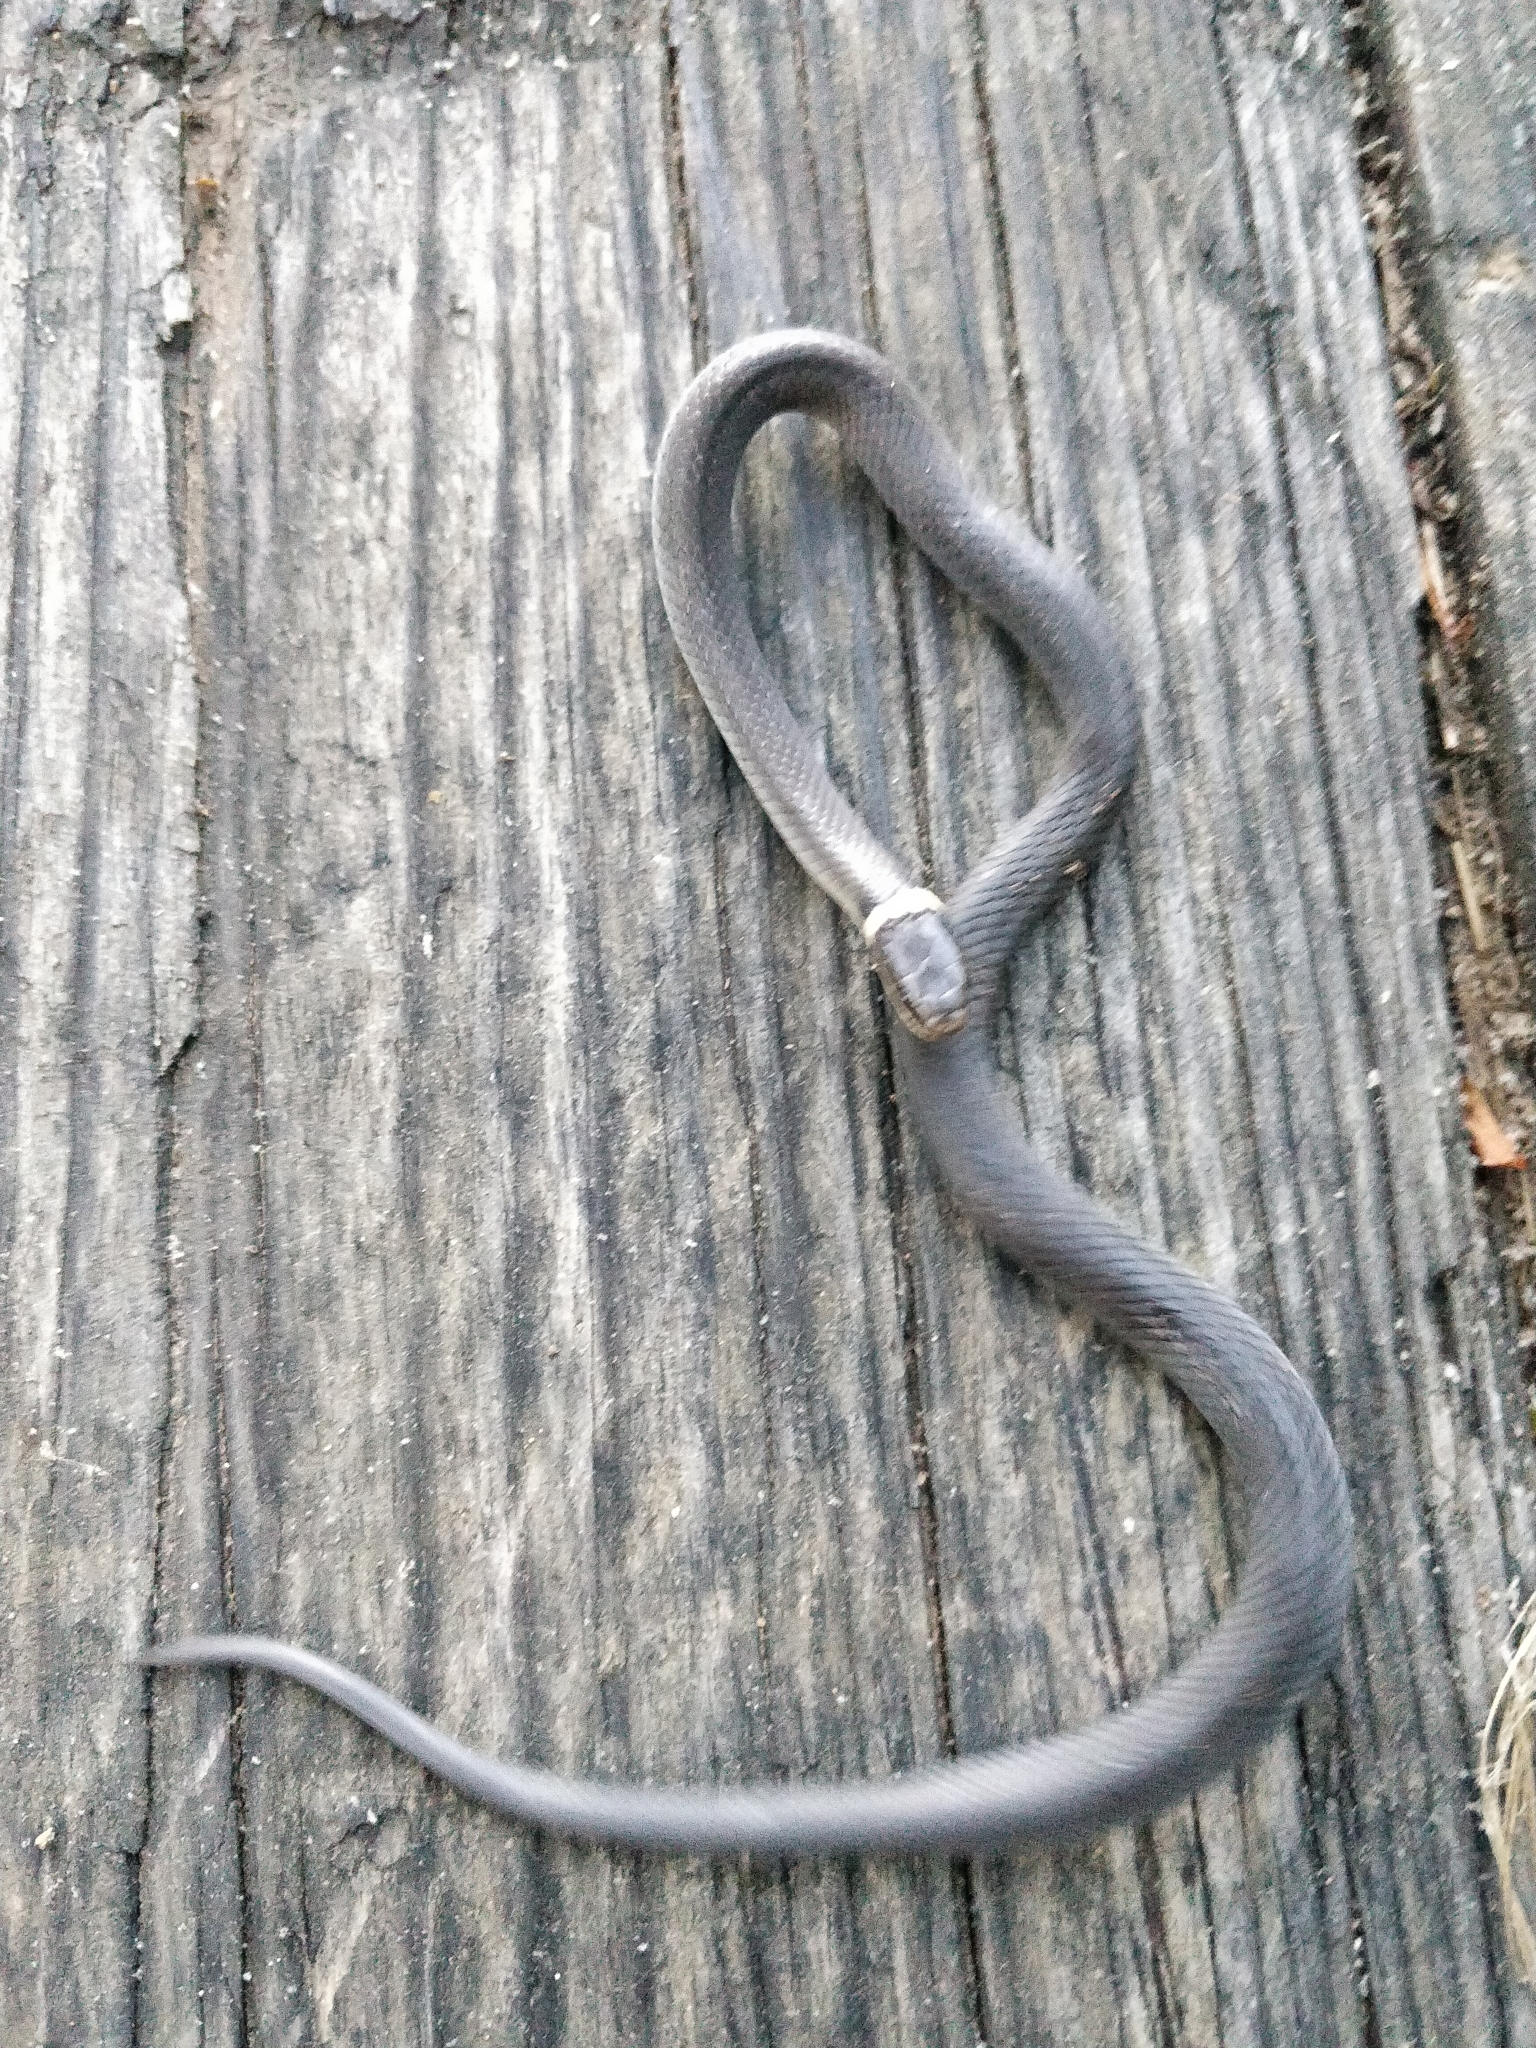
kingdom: Animalia
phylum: Chordata
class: Squamata
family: Colubridae
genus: Diadophis
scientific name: Diadophis punctatus
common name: Ringneck snake
